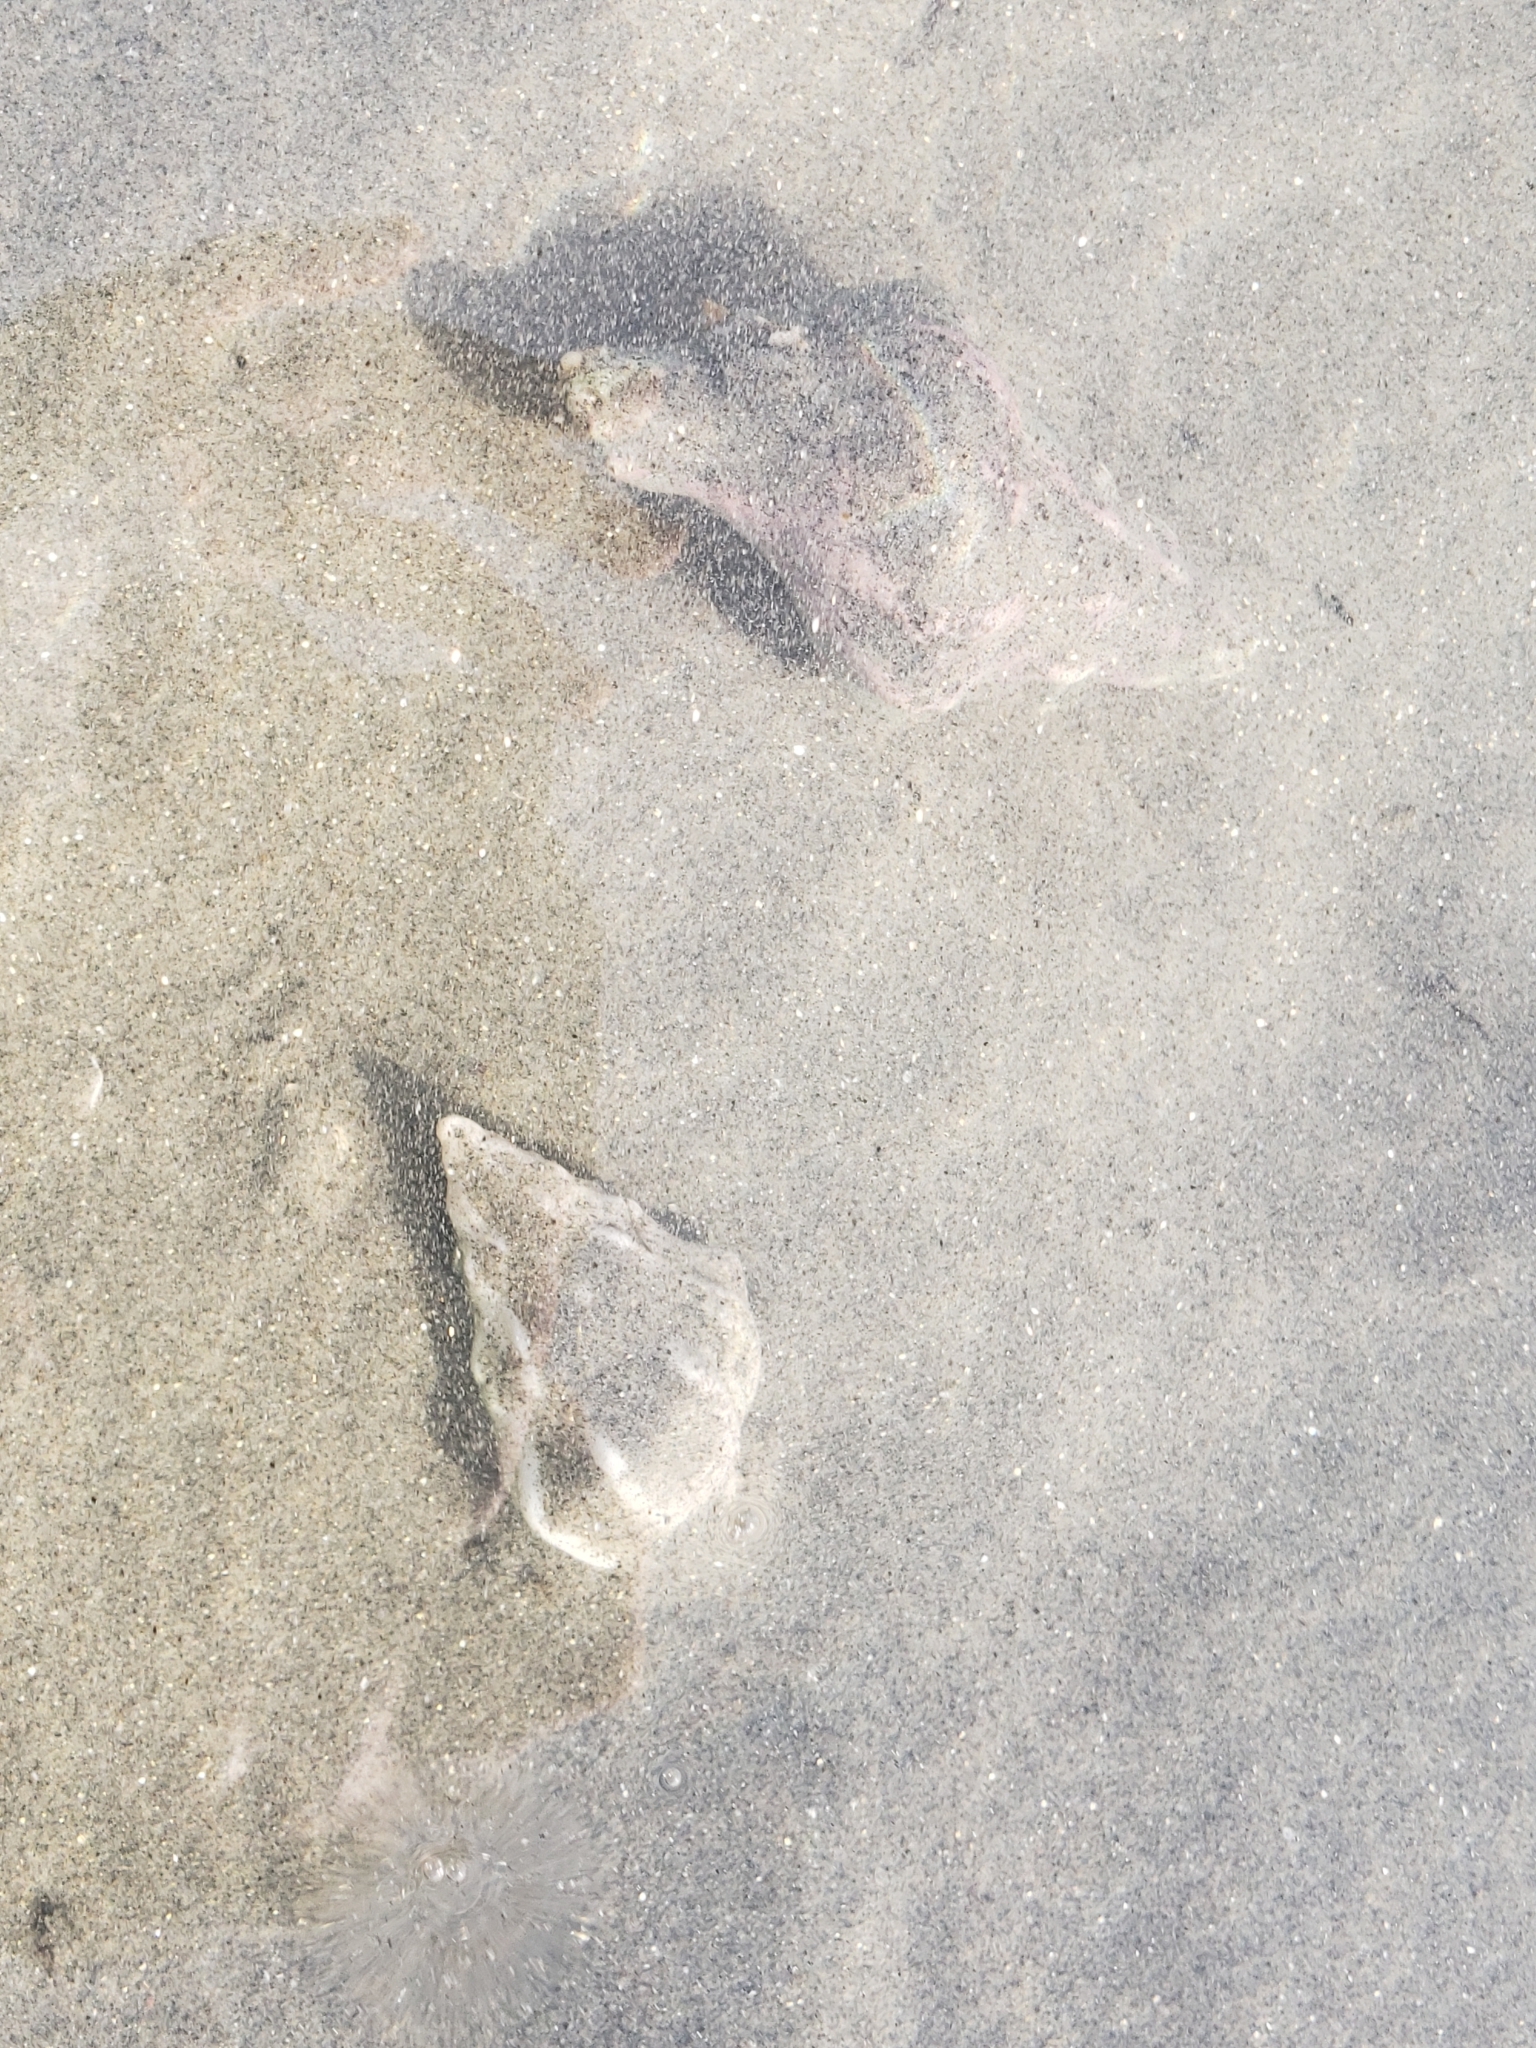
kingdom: Animalia
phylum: Mollusca
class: Gastropoda
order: Neogastropoda
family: Austrosiphonidae
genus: Kelletia
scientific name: Kelletia kelletii
